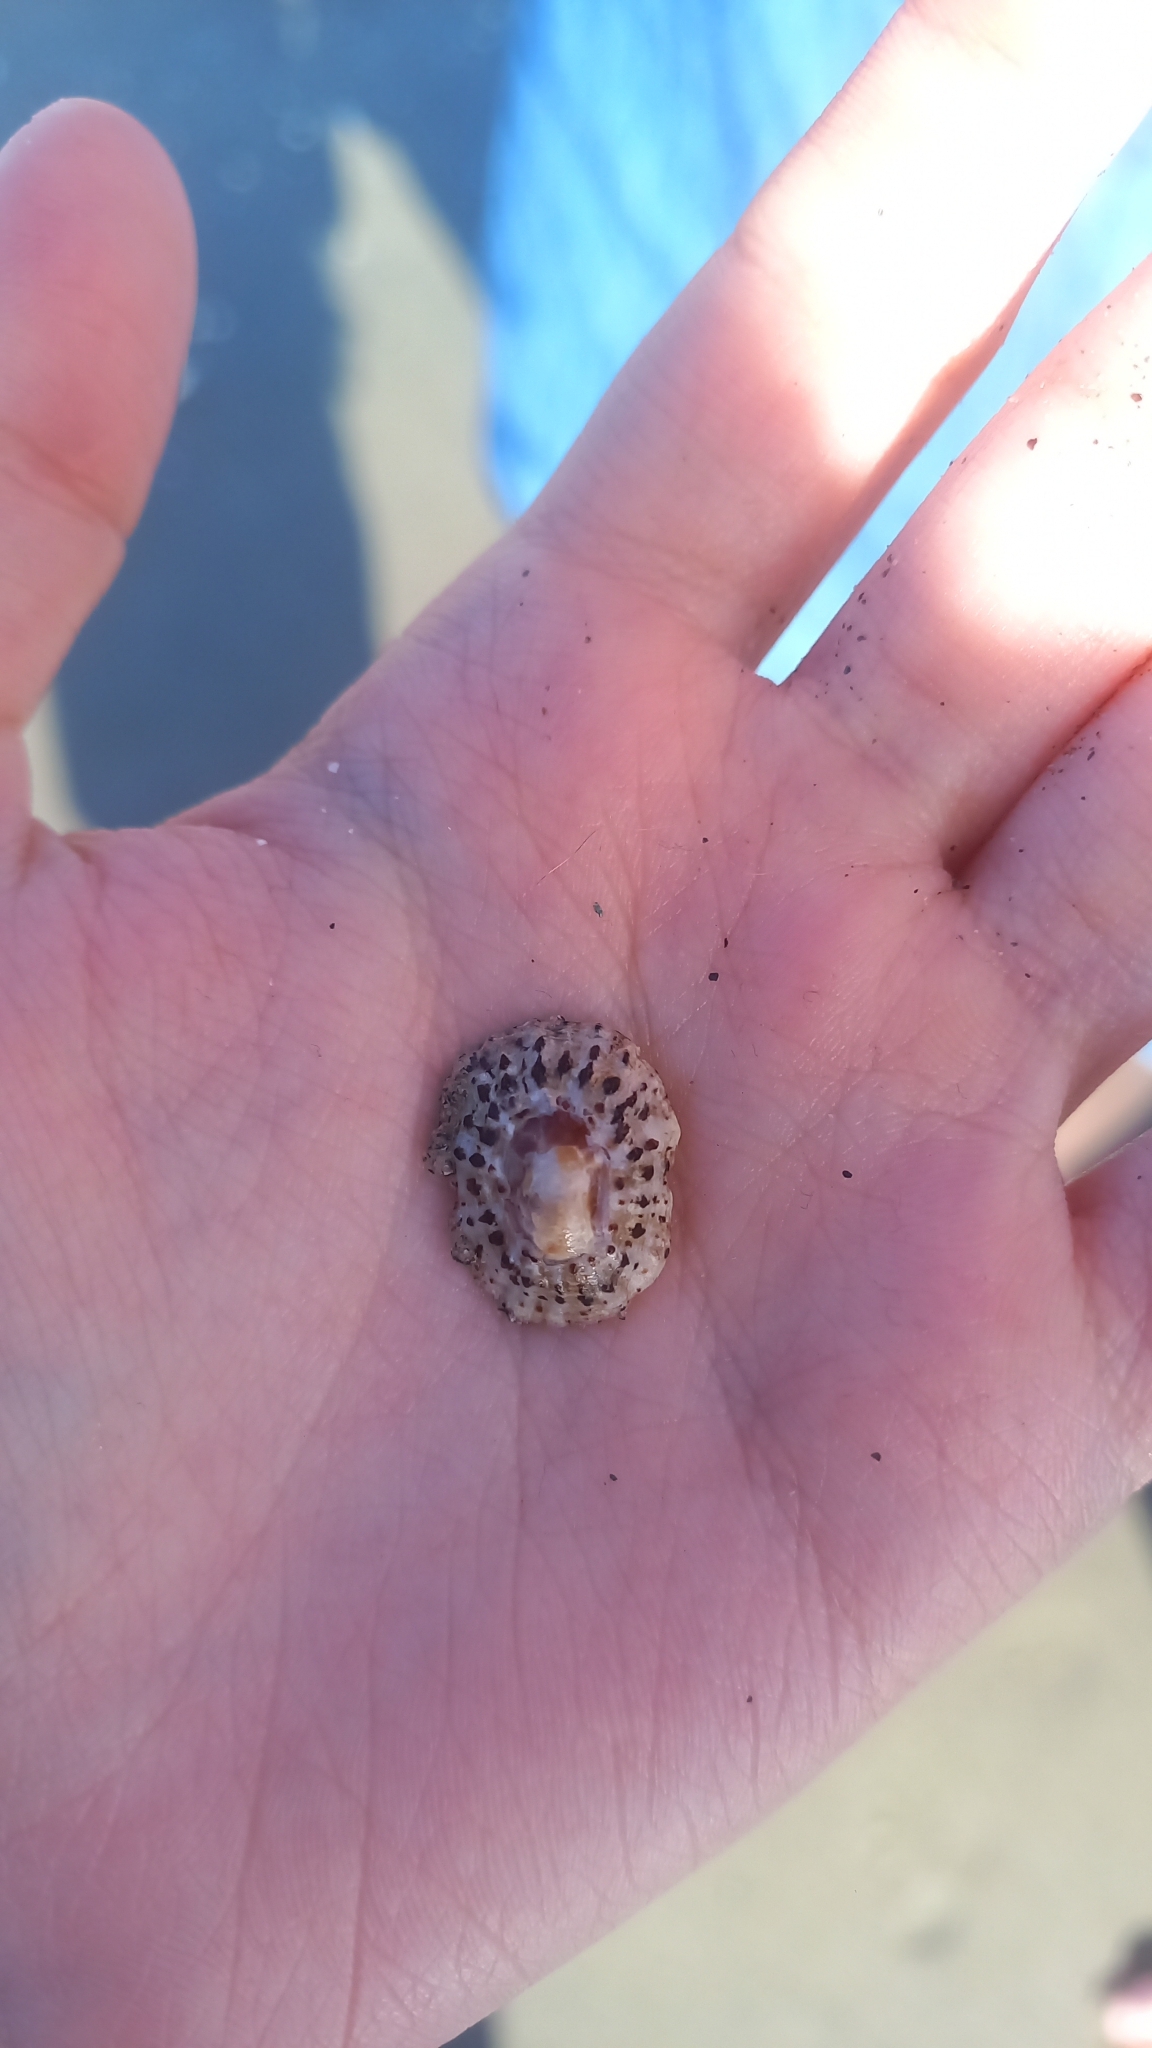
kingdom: Animalia
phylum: Mollusca
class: Gastropoda
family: Patellidae
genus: Patella
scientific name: Patella rustica
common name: Lusitanian limpet
